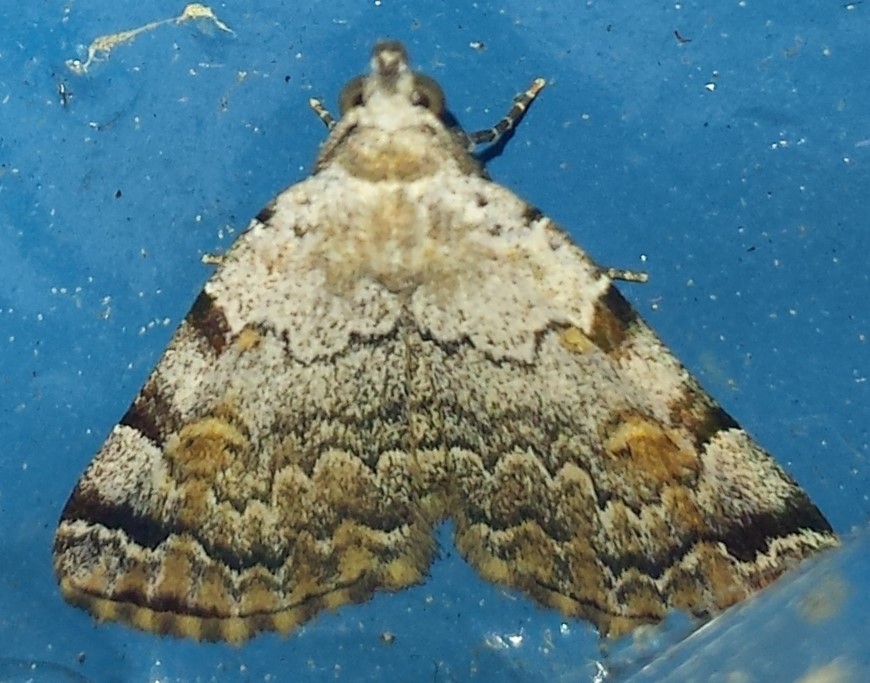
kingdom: Animalia
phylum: Arthropoda
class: Insecta
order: Lepidoptera
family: Erebidae
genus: Idia
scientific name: Idia americalis
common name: American idia moth
